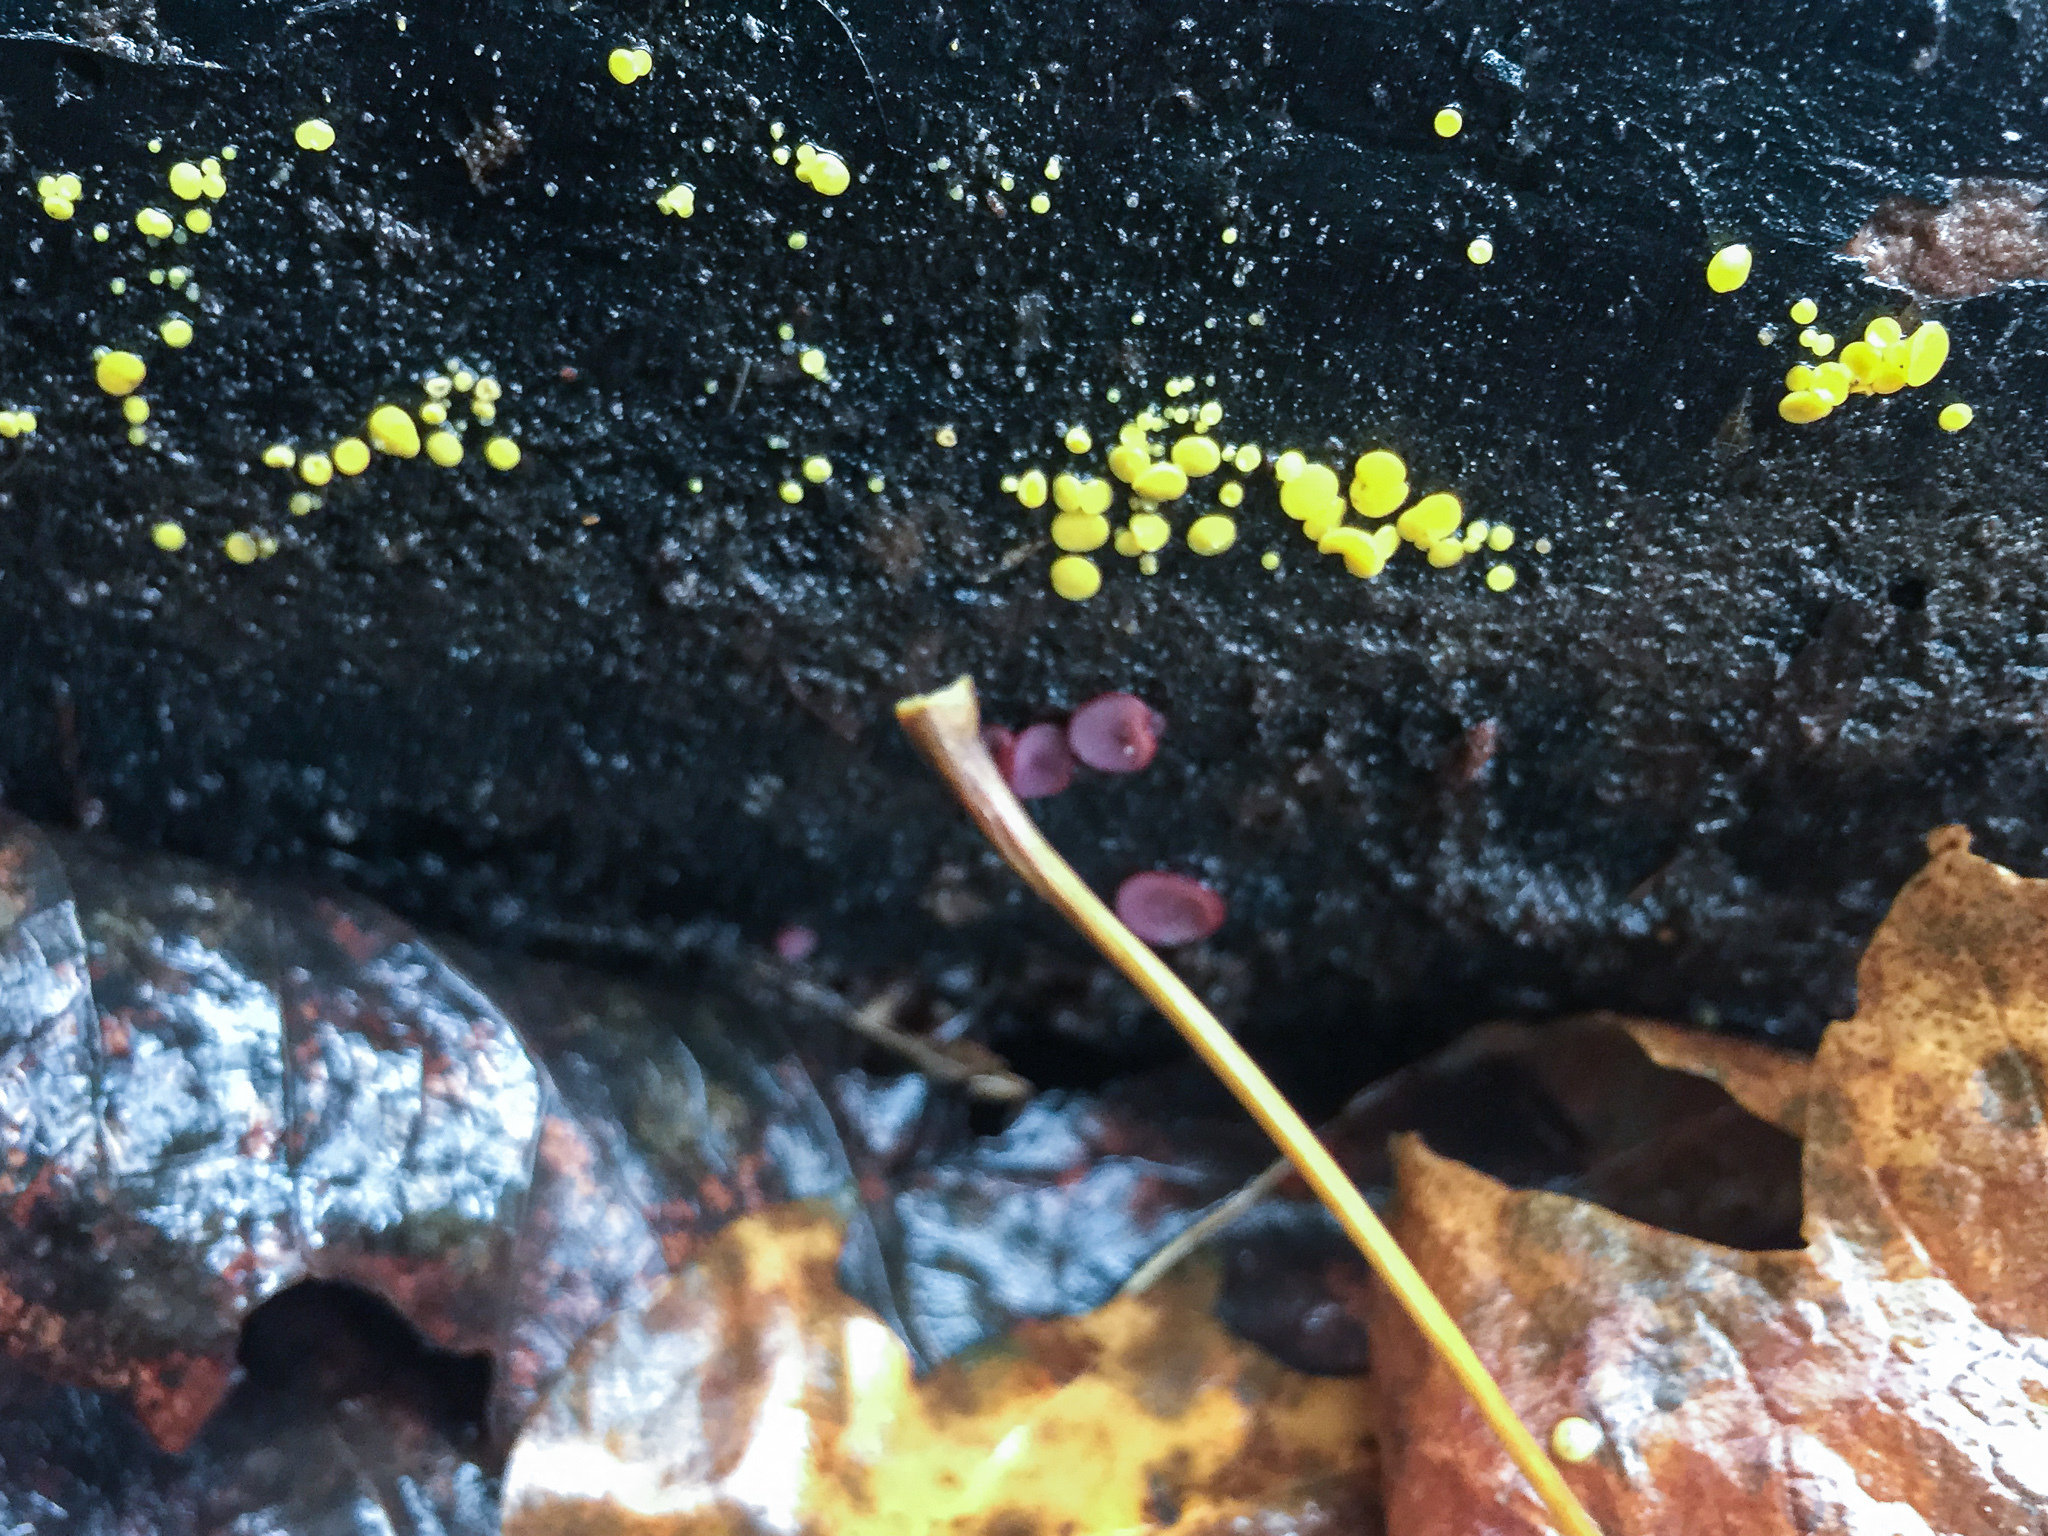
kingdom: Fungi
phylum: Ascomycota
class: Leotiomycetes
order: Helotiales
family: Pezizellaceae
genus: Calycina
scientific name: Calycina citrina
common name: Yellow fairy cups
